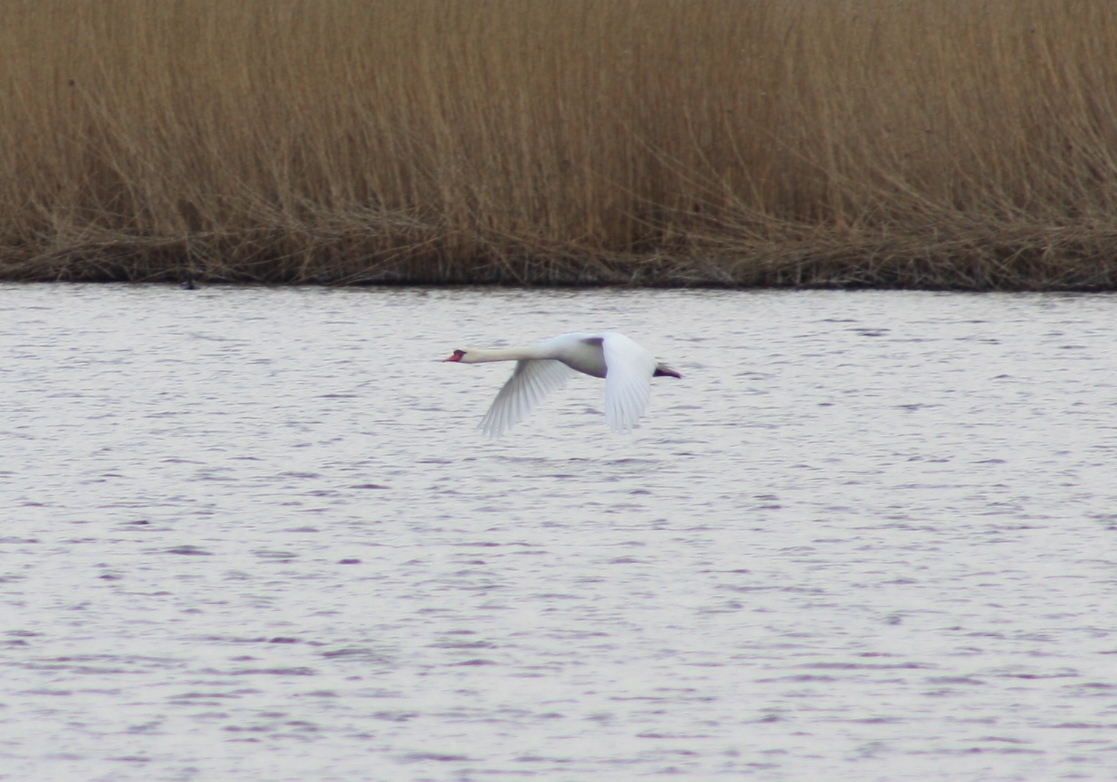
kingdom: Animalia
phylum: Chordata
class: Aves
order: Anseriformes
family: Anatidae
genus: Cygnus
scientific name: Cygnus olor
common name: Mute swan
